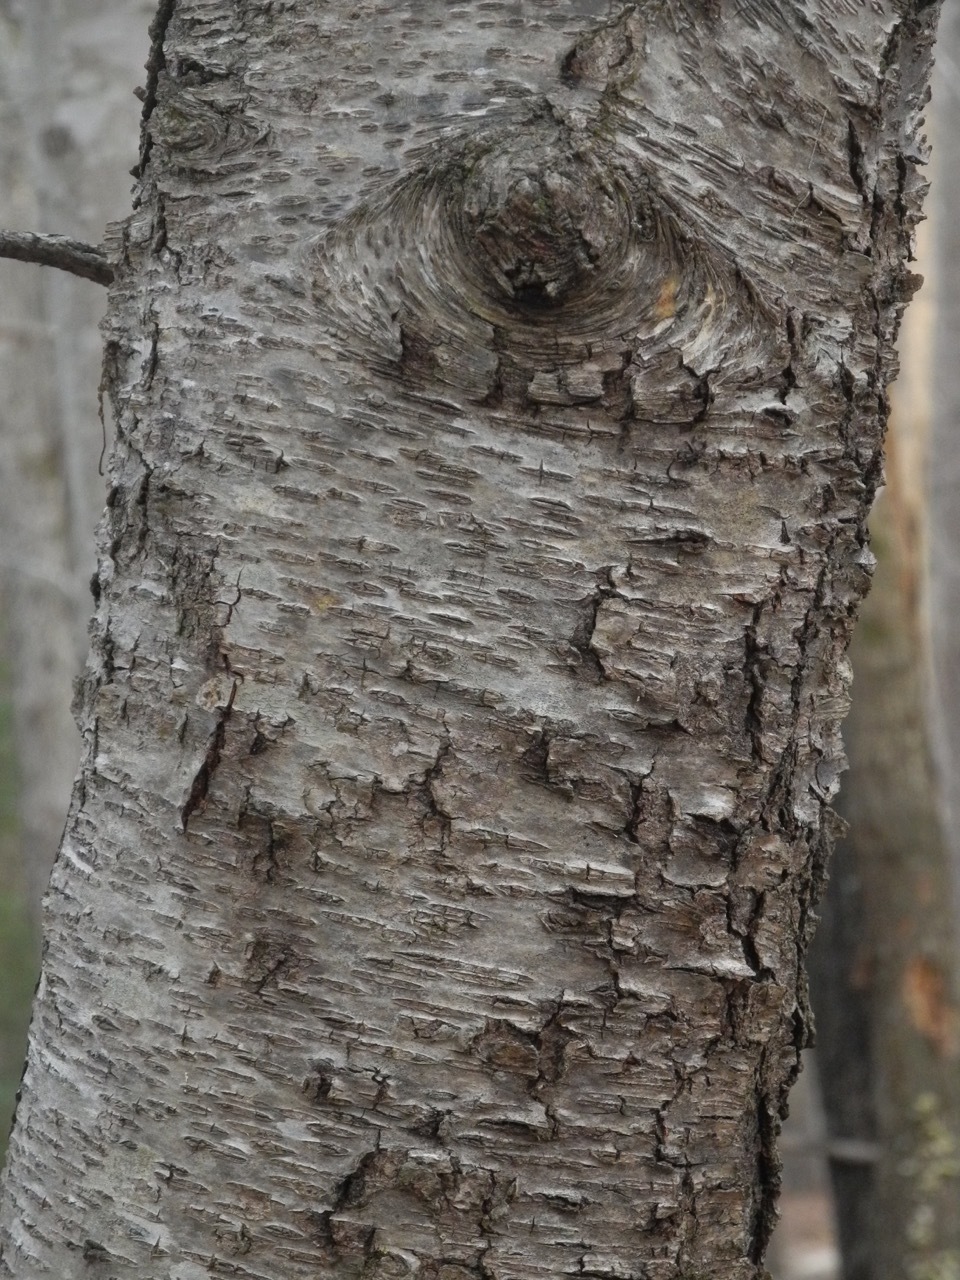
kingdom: Plantae
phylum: Tracheophyta
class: Magnoliopsida
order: Rosales
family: Rosaceae
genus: Prunus
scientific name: Prunus serotina
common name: Black cherry
